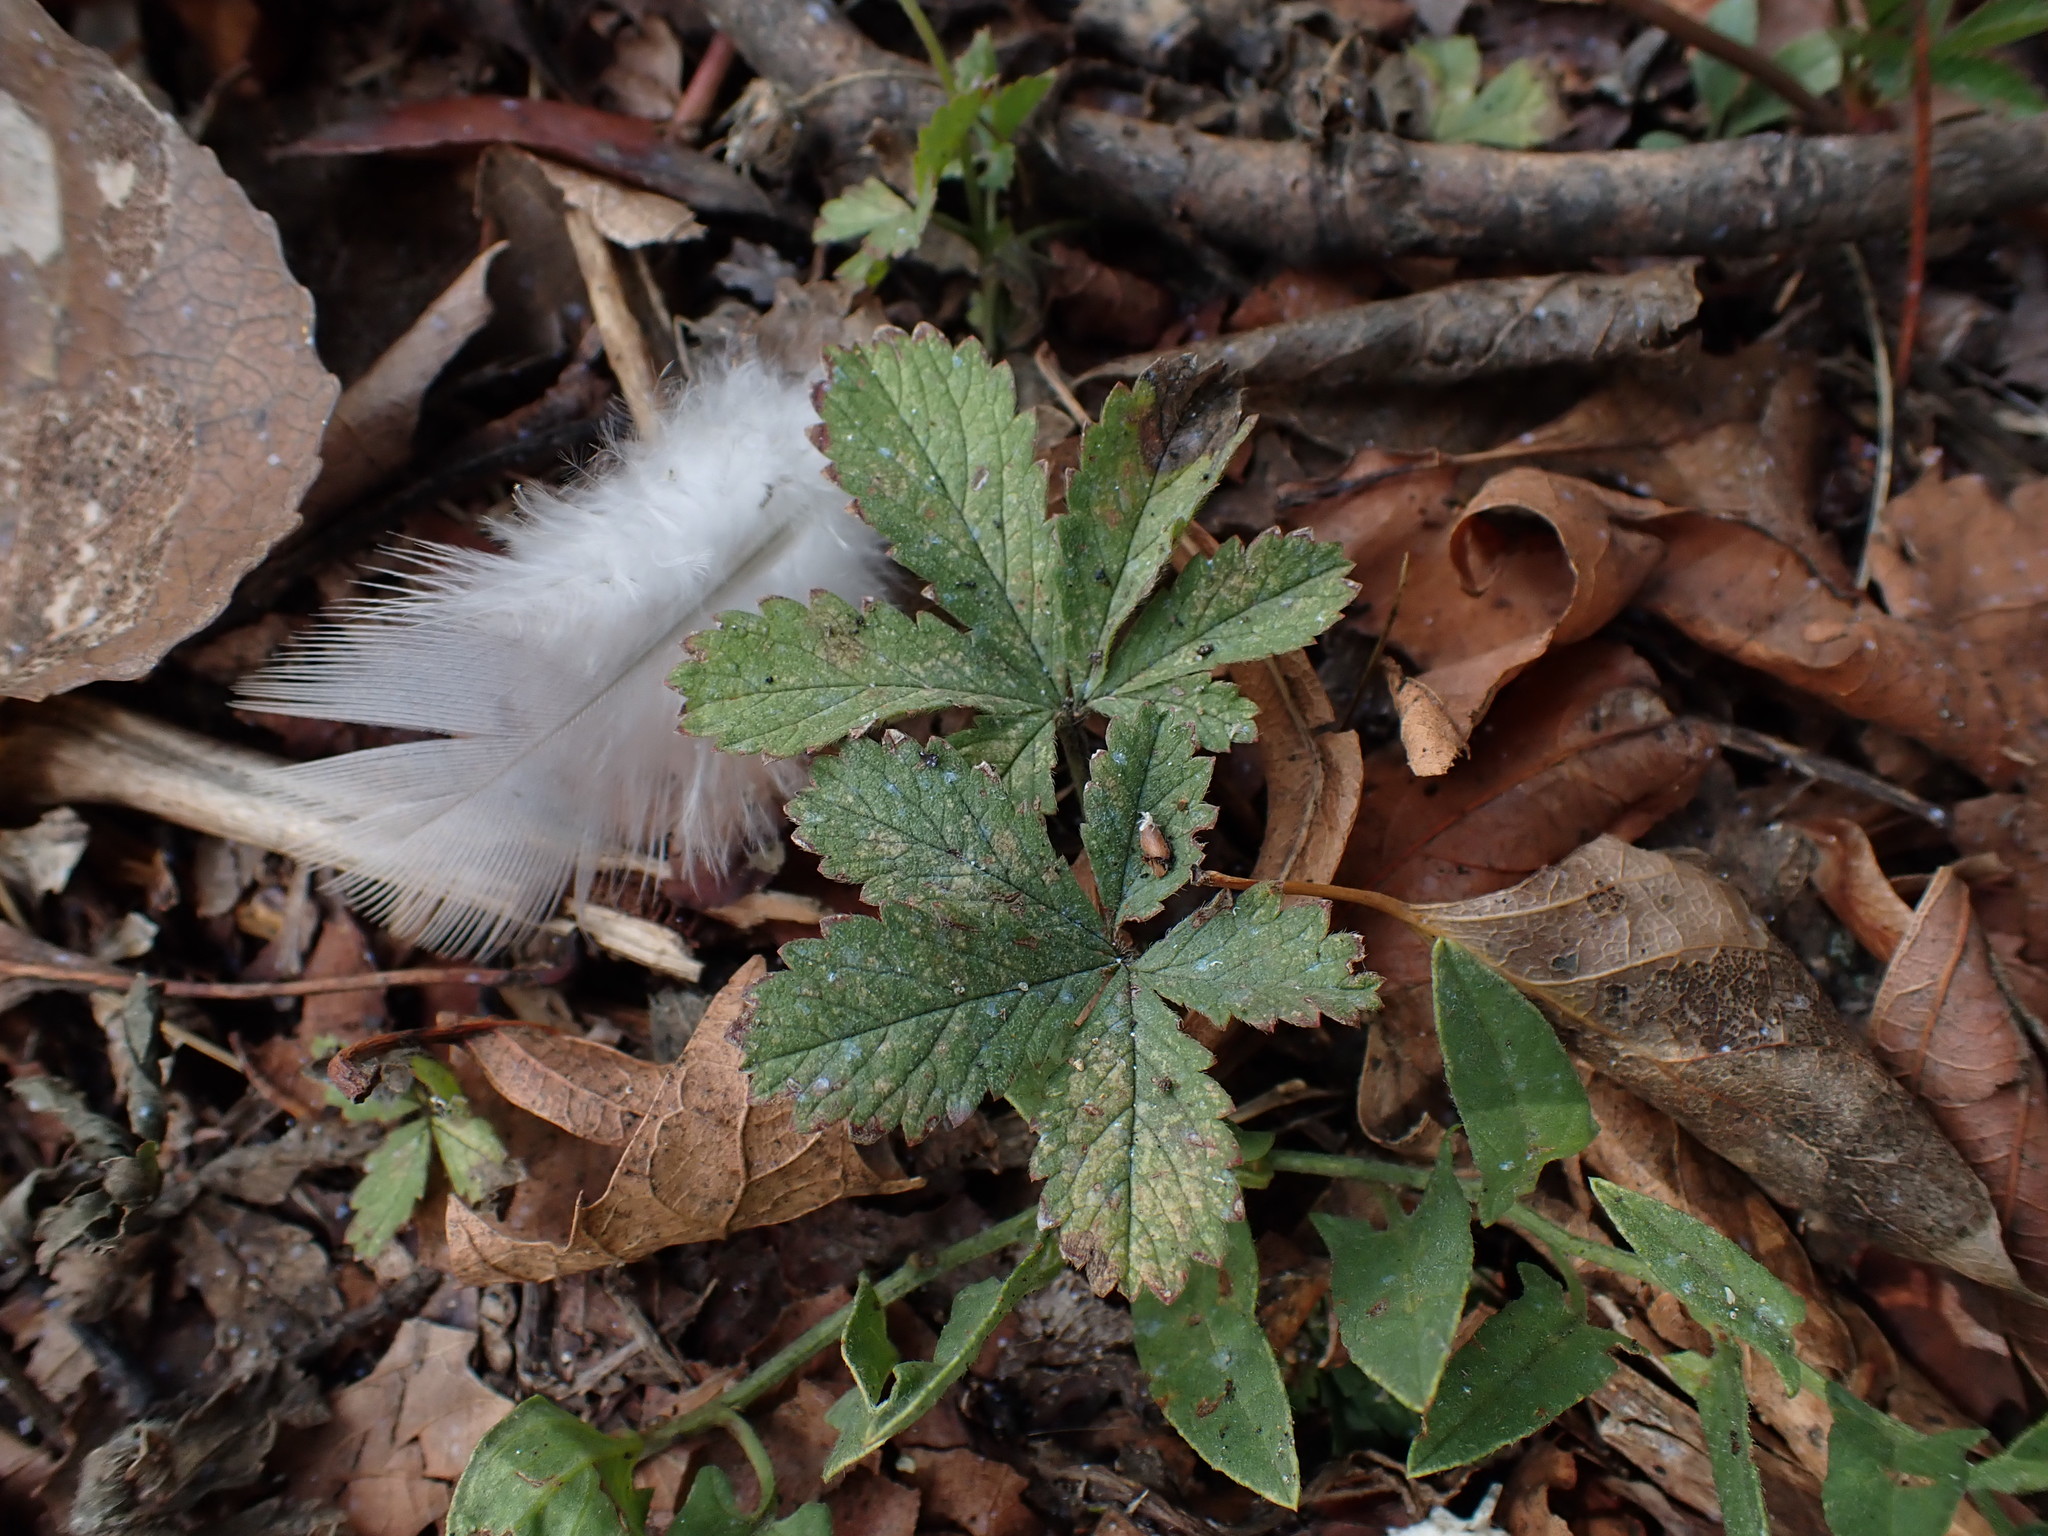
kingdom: Plantae
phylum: Tracheophyta
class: Magnoliopsida
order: Rosales
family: Rosaceae
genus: Potentilla
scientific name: Potentilla reptans
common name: Creeping cinquefoil
